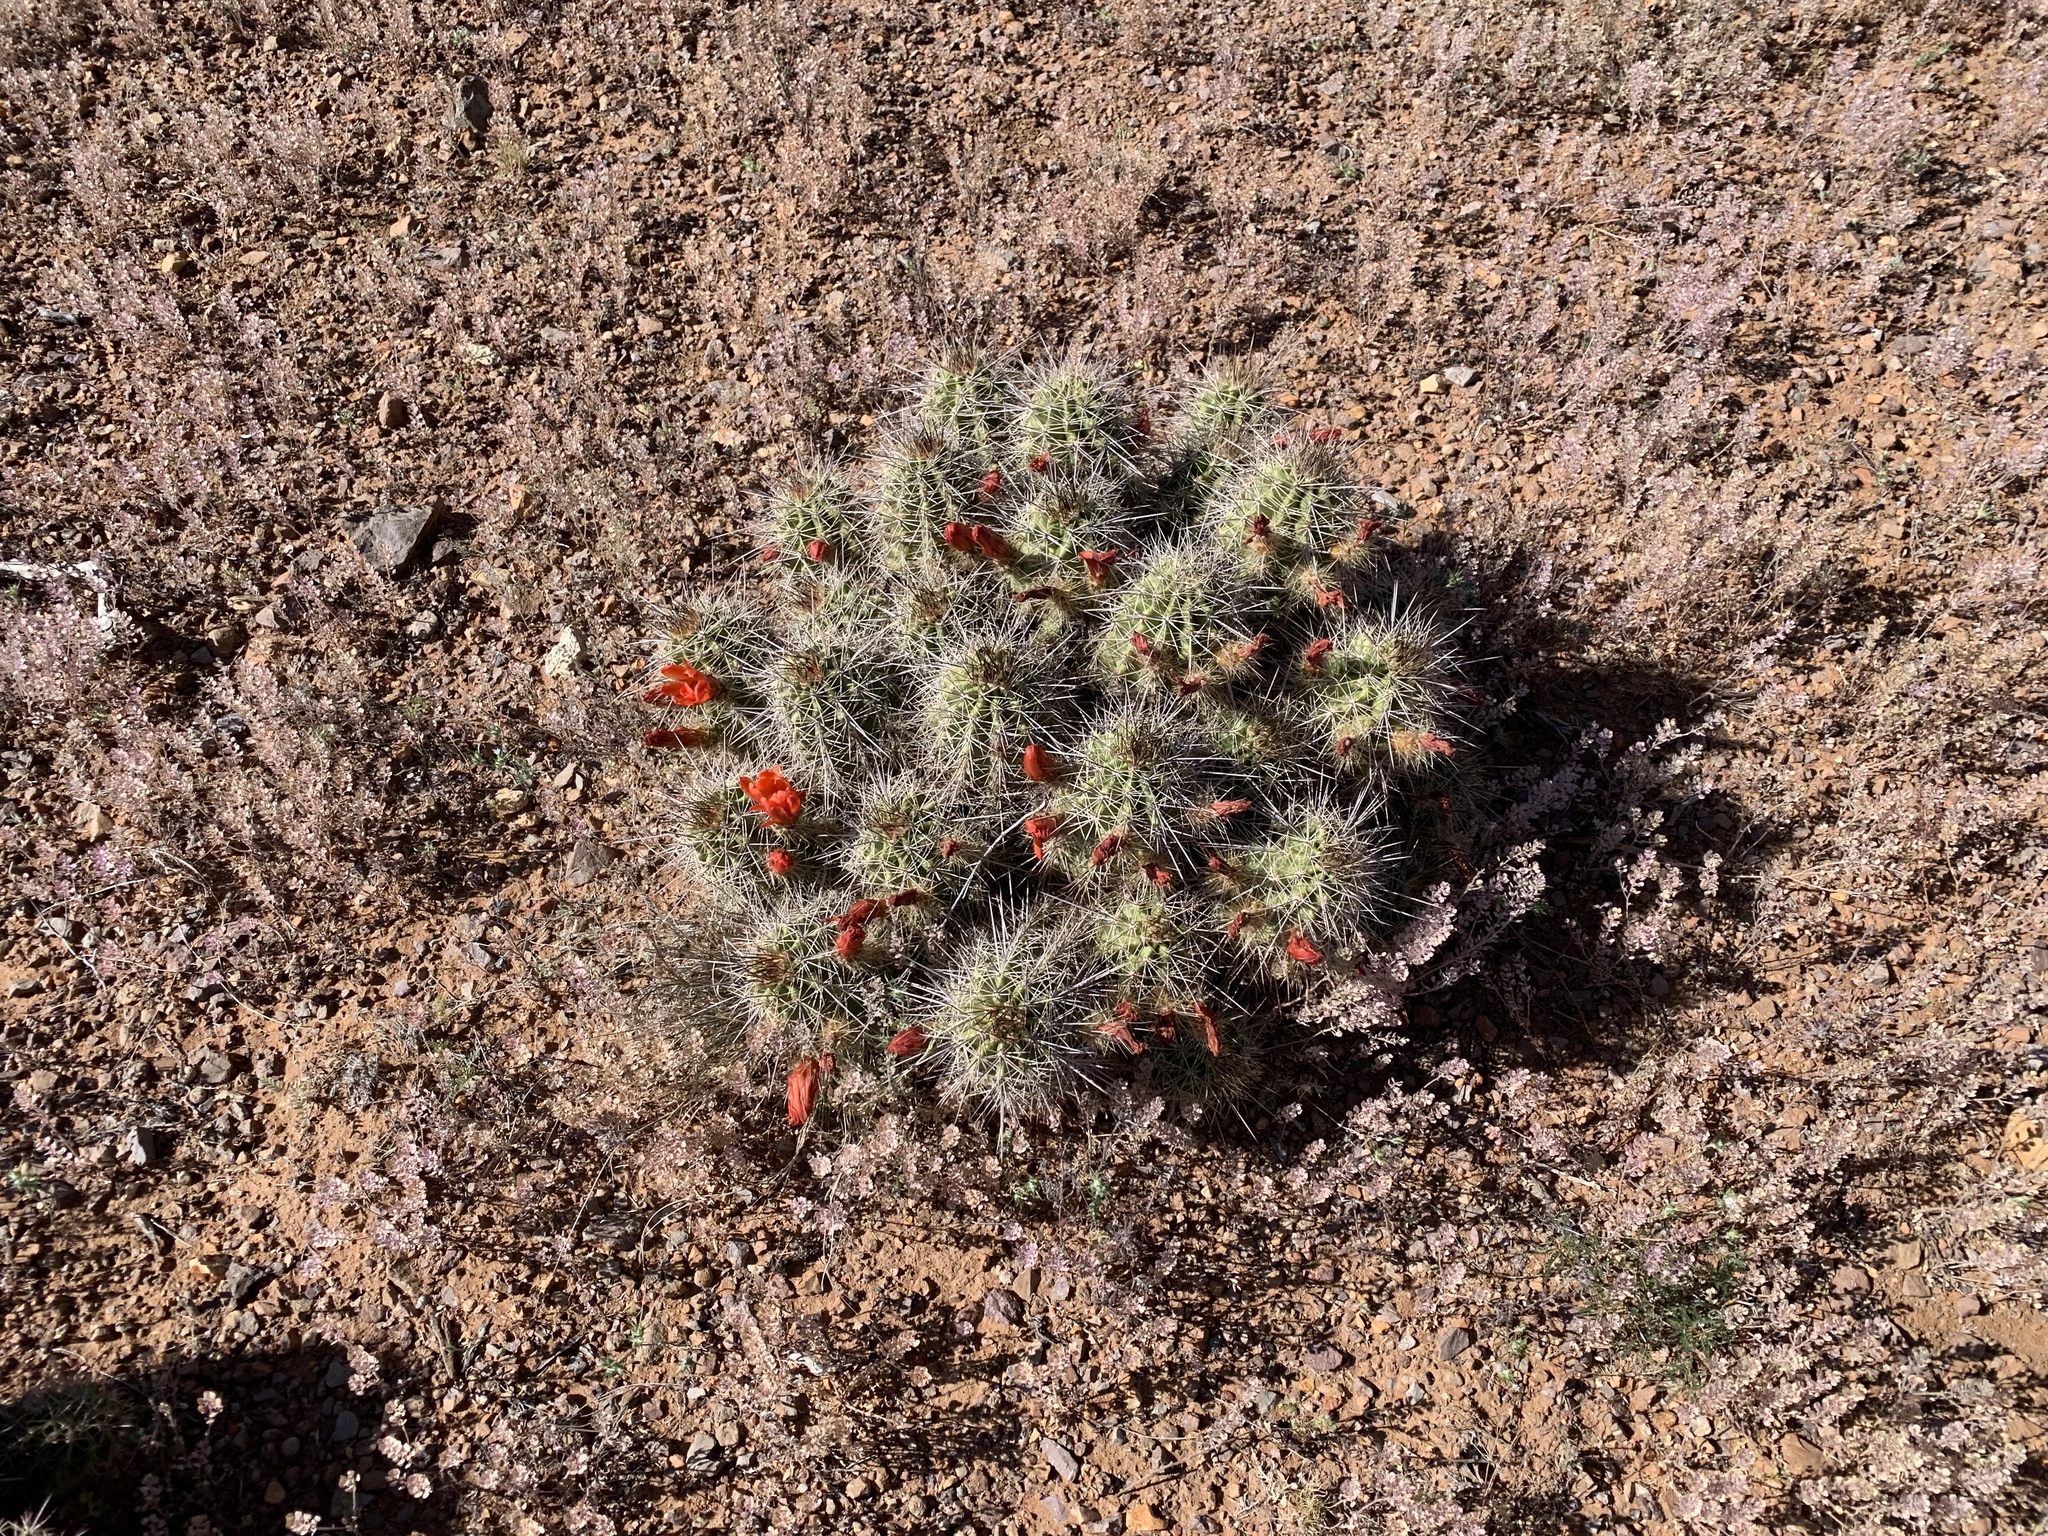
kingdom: Plantae
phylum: Tracheophyta
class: Magnoliopsida
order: Caryophyllales
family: Cactaceae
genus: Echinocereus
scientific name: Echinocereus coccineus
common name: Scarlet hedgehog cactus
